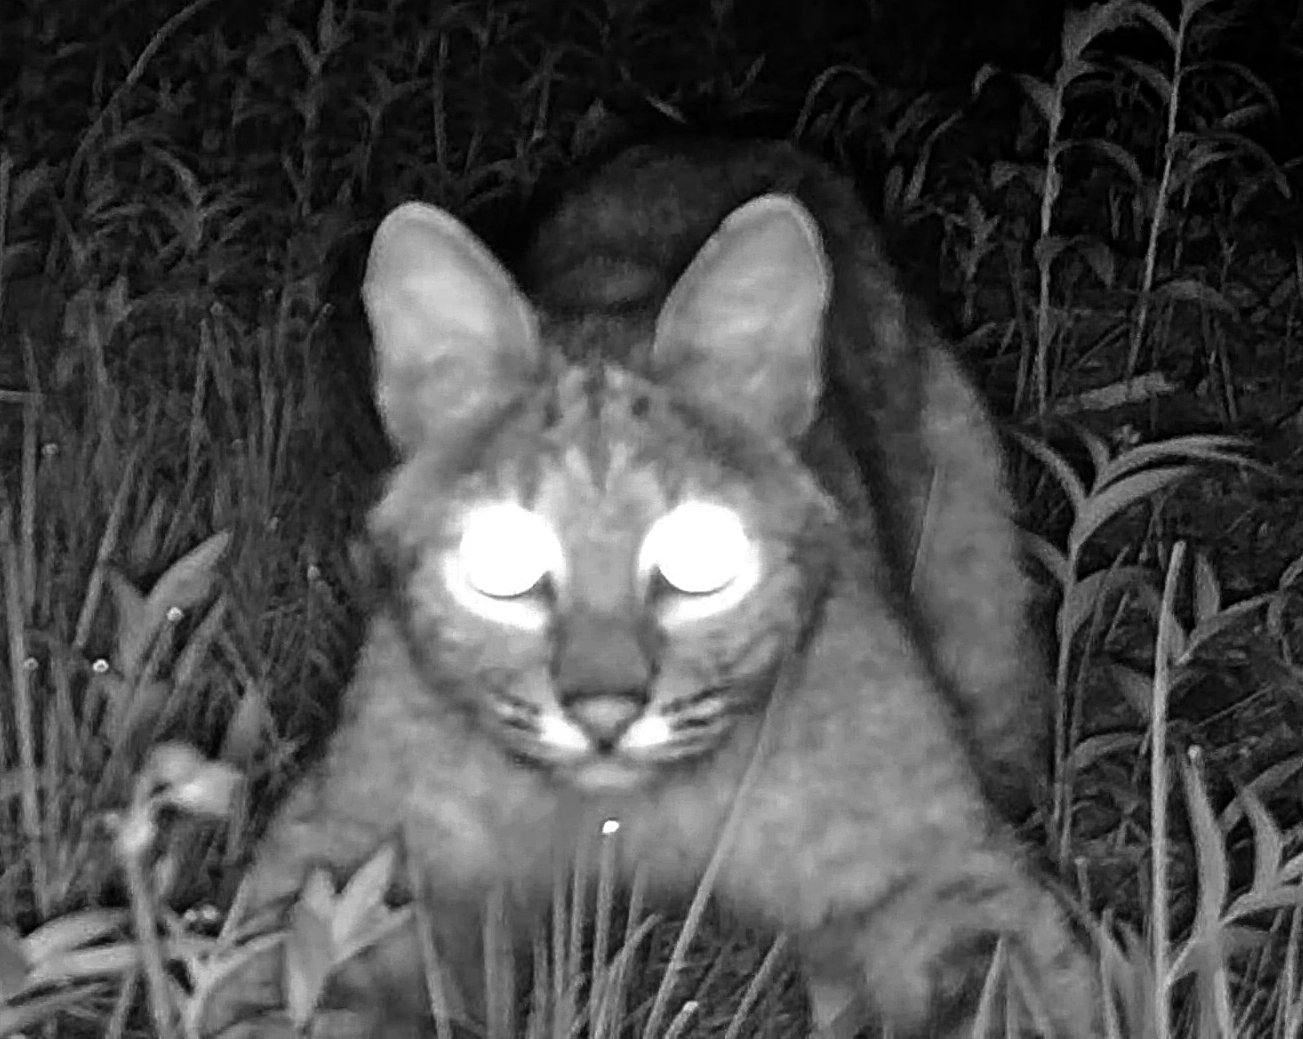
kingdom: Animalia
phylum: Chordata
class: Mammalia
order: Carnivora
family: Felidae
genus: Lynx
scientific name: Lynx rufus
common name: Bobcat
